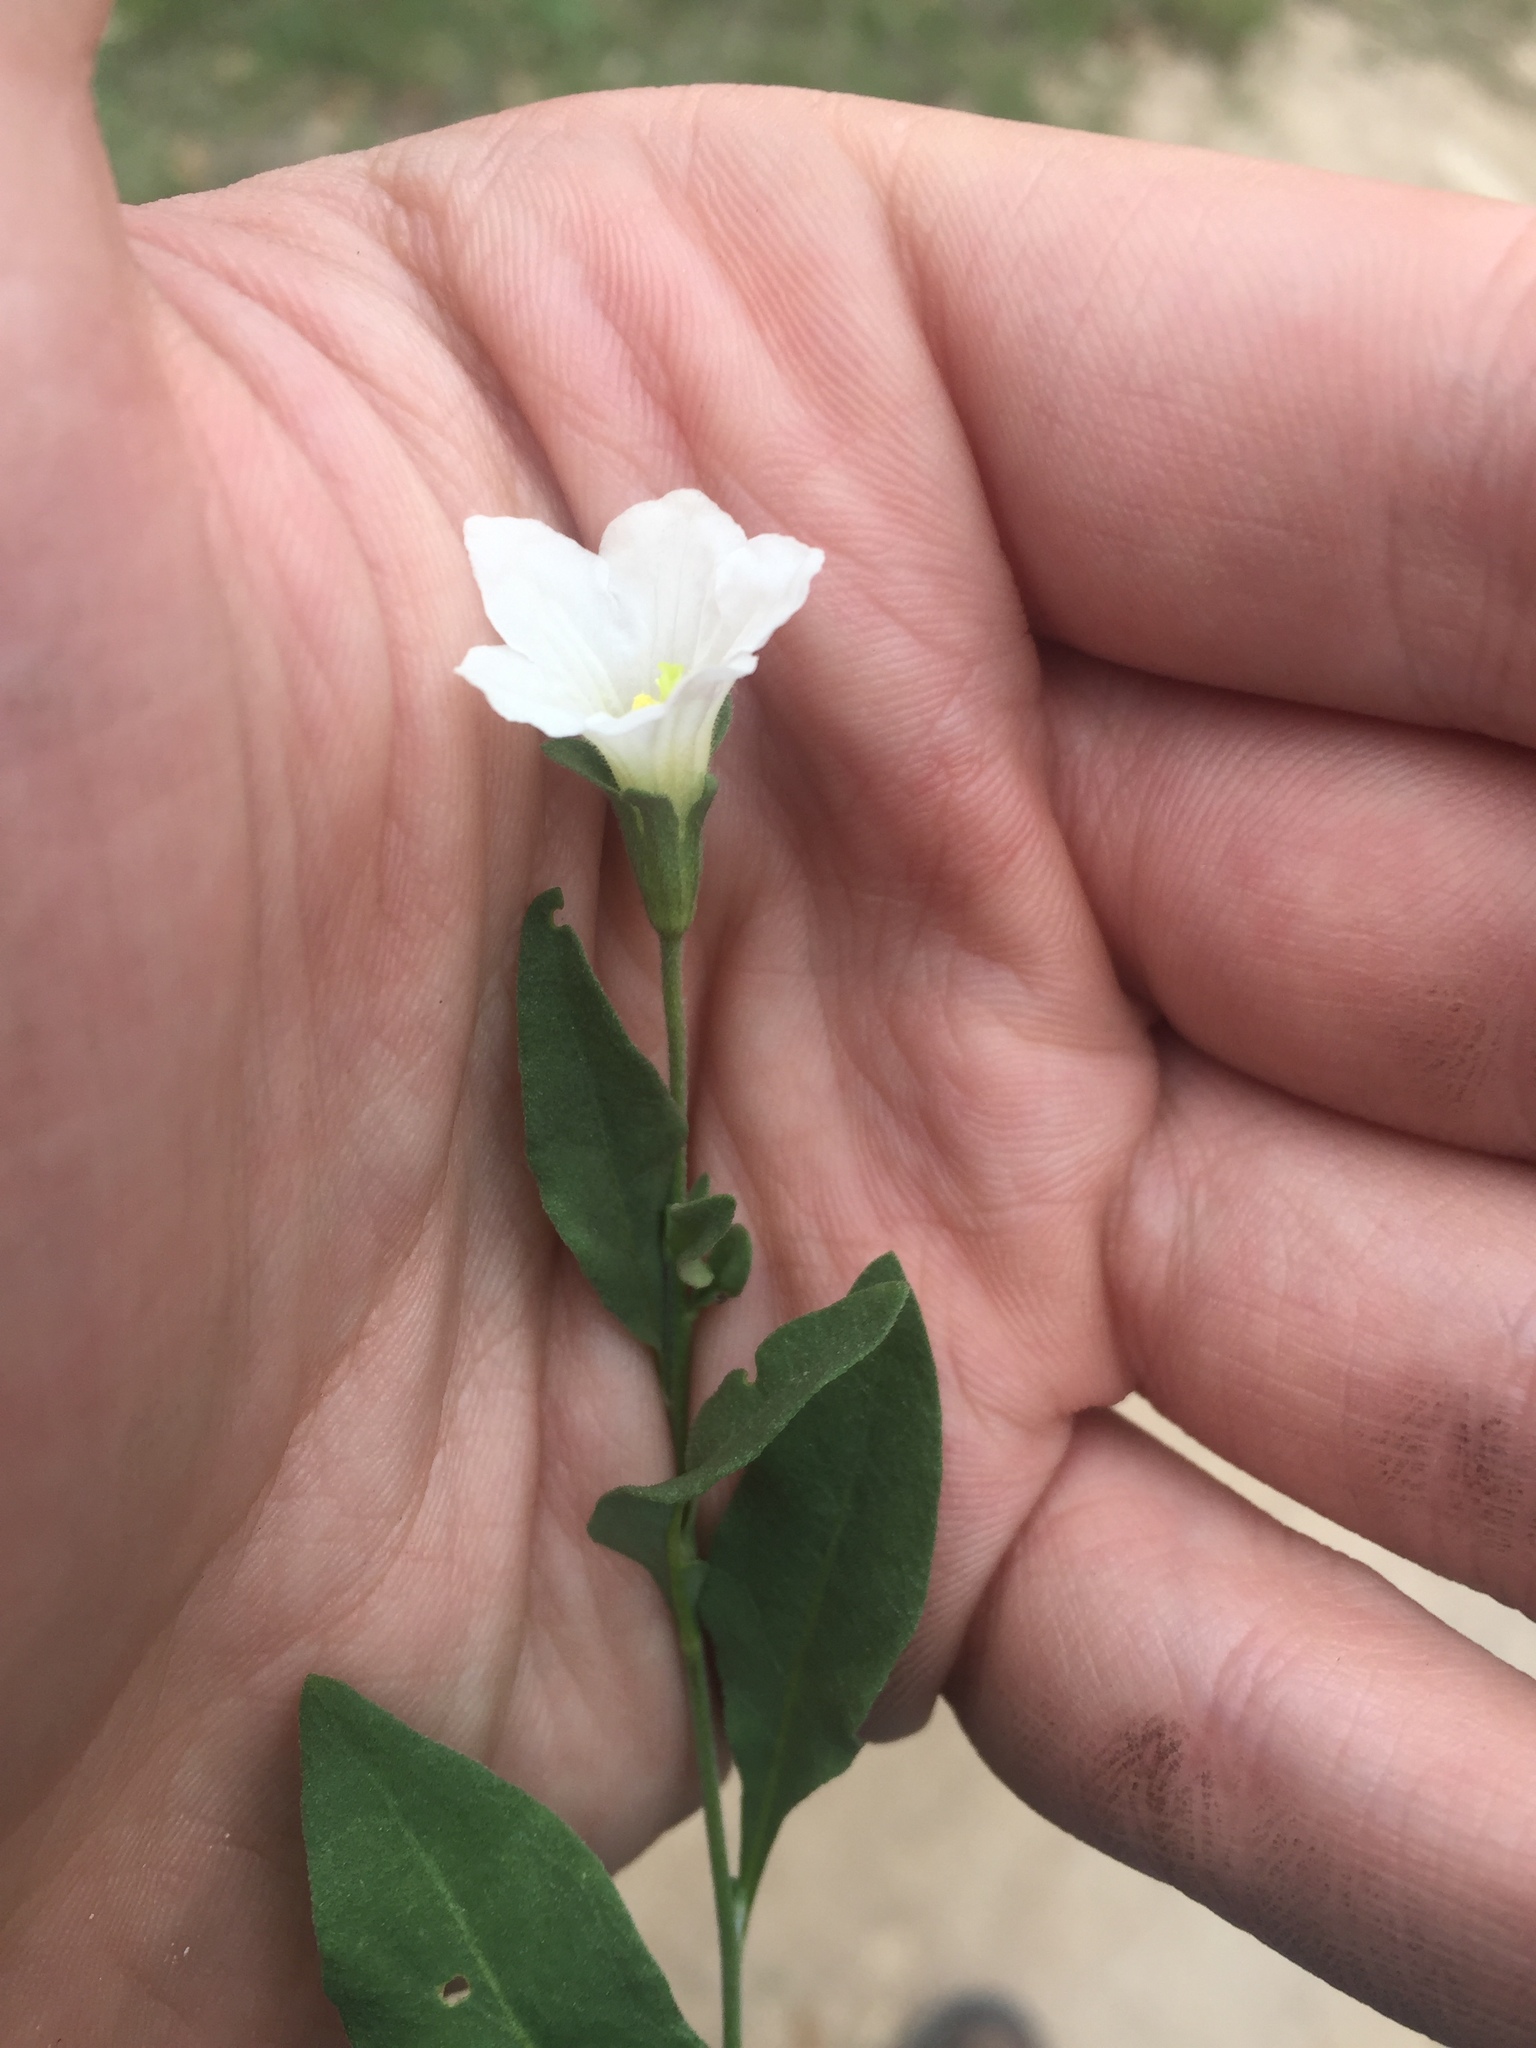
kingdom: Plantae
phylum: Tracheophyta
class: Magnoliopsida
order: Solanales
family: Solanaceae
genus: Salpiglossis
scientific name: Salpiglossis erecta
